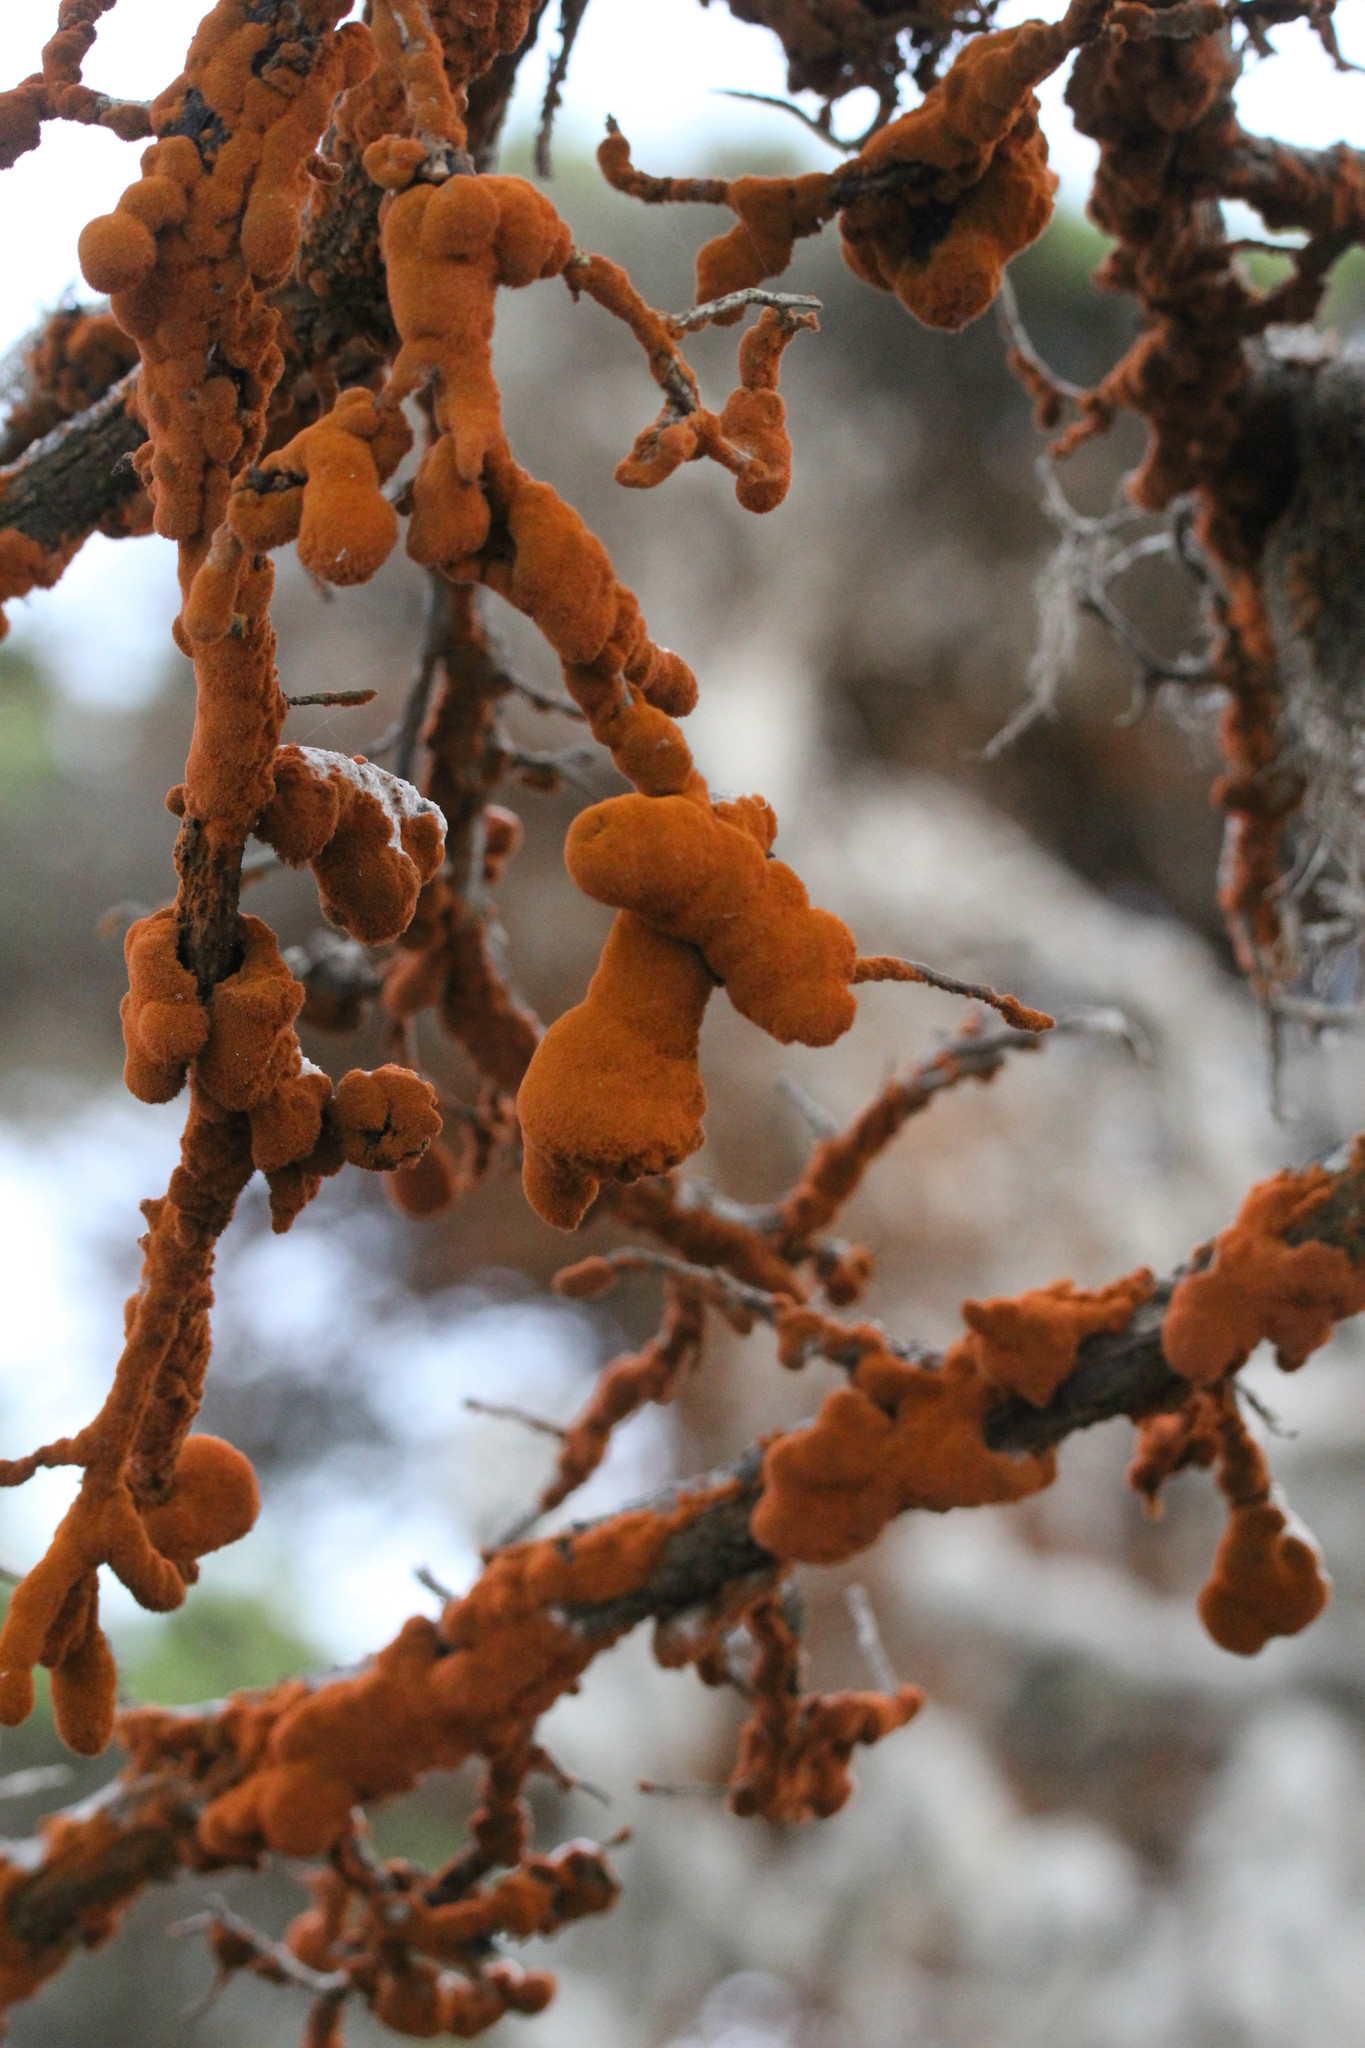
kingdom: Plantae
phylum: Chlorophyta
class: Ulvophyceae
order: Trentepohliales
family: Trentepohliaceae
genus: Trentepohlia
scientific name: Trentepohlia aurea
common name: Orange rock hair
